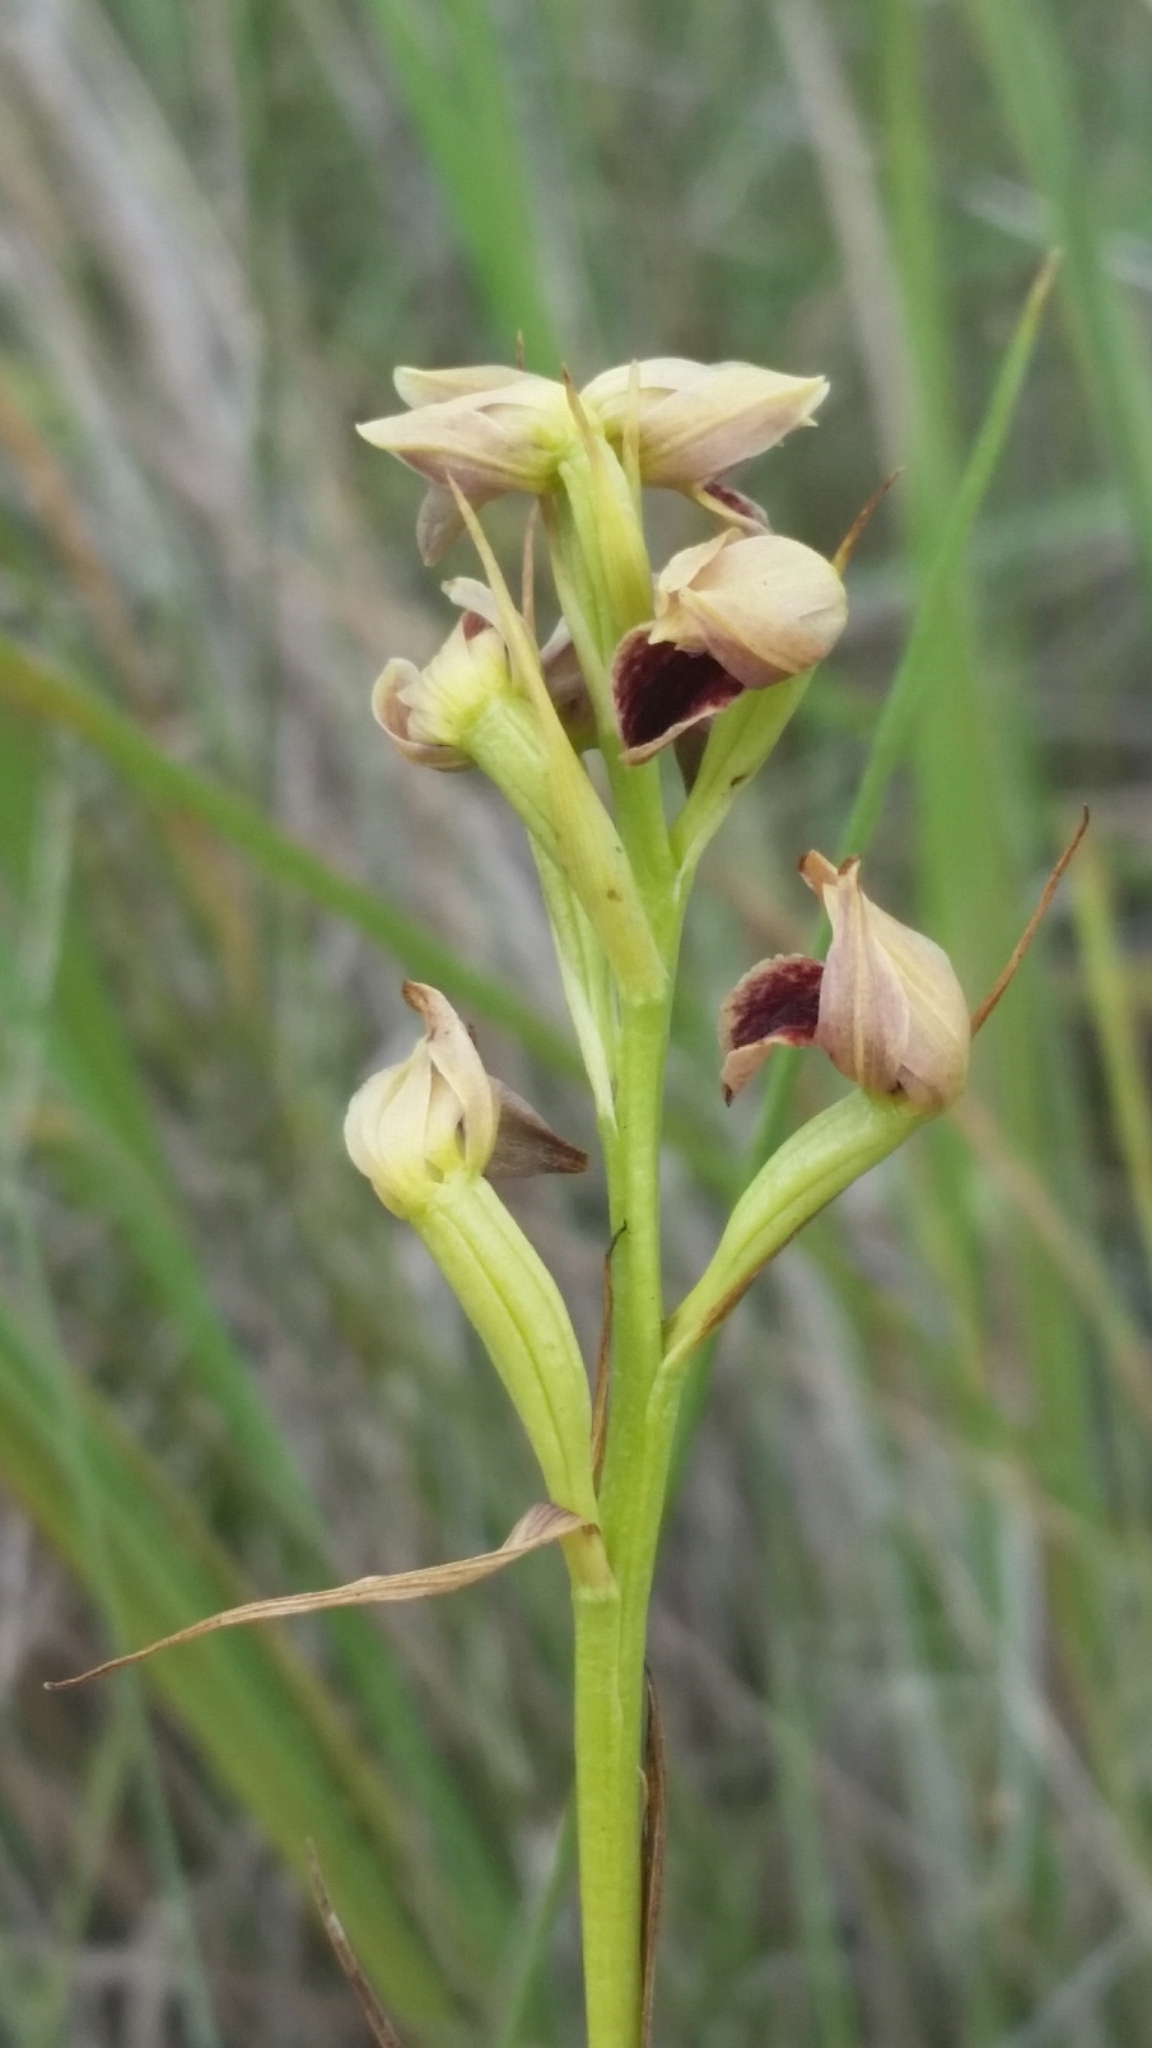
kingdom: Plantae
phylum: Tracheophyta
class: Liliopsida
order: Asparagales
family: Orchidaceae
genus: Eulophia
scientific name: Eulophia ecristata
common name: Giant orchid
